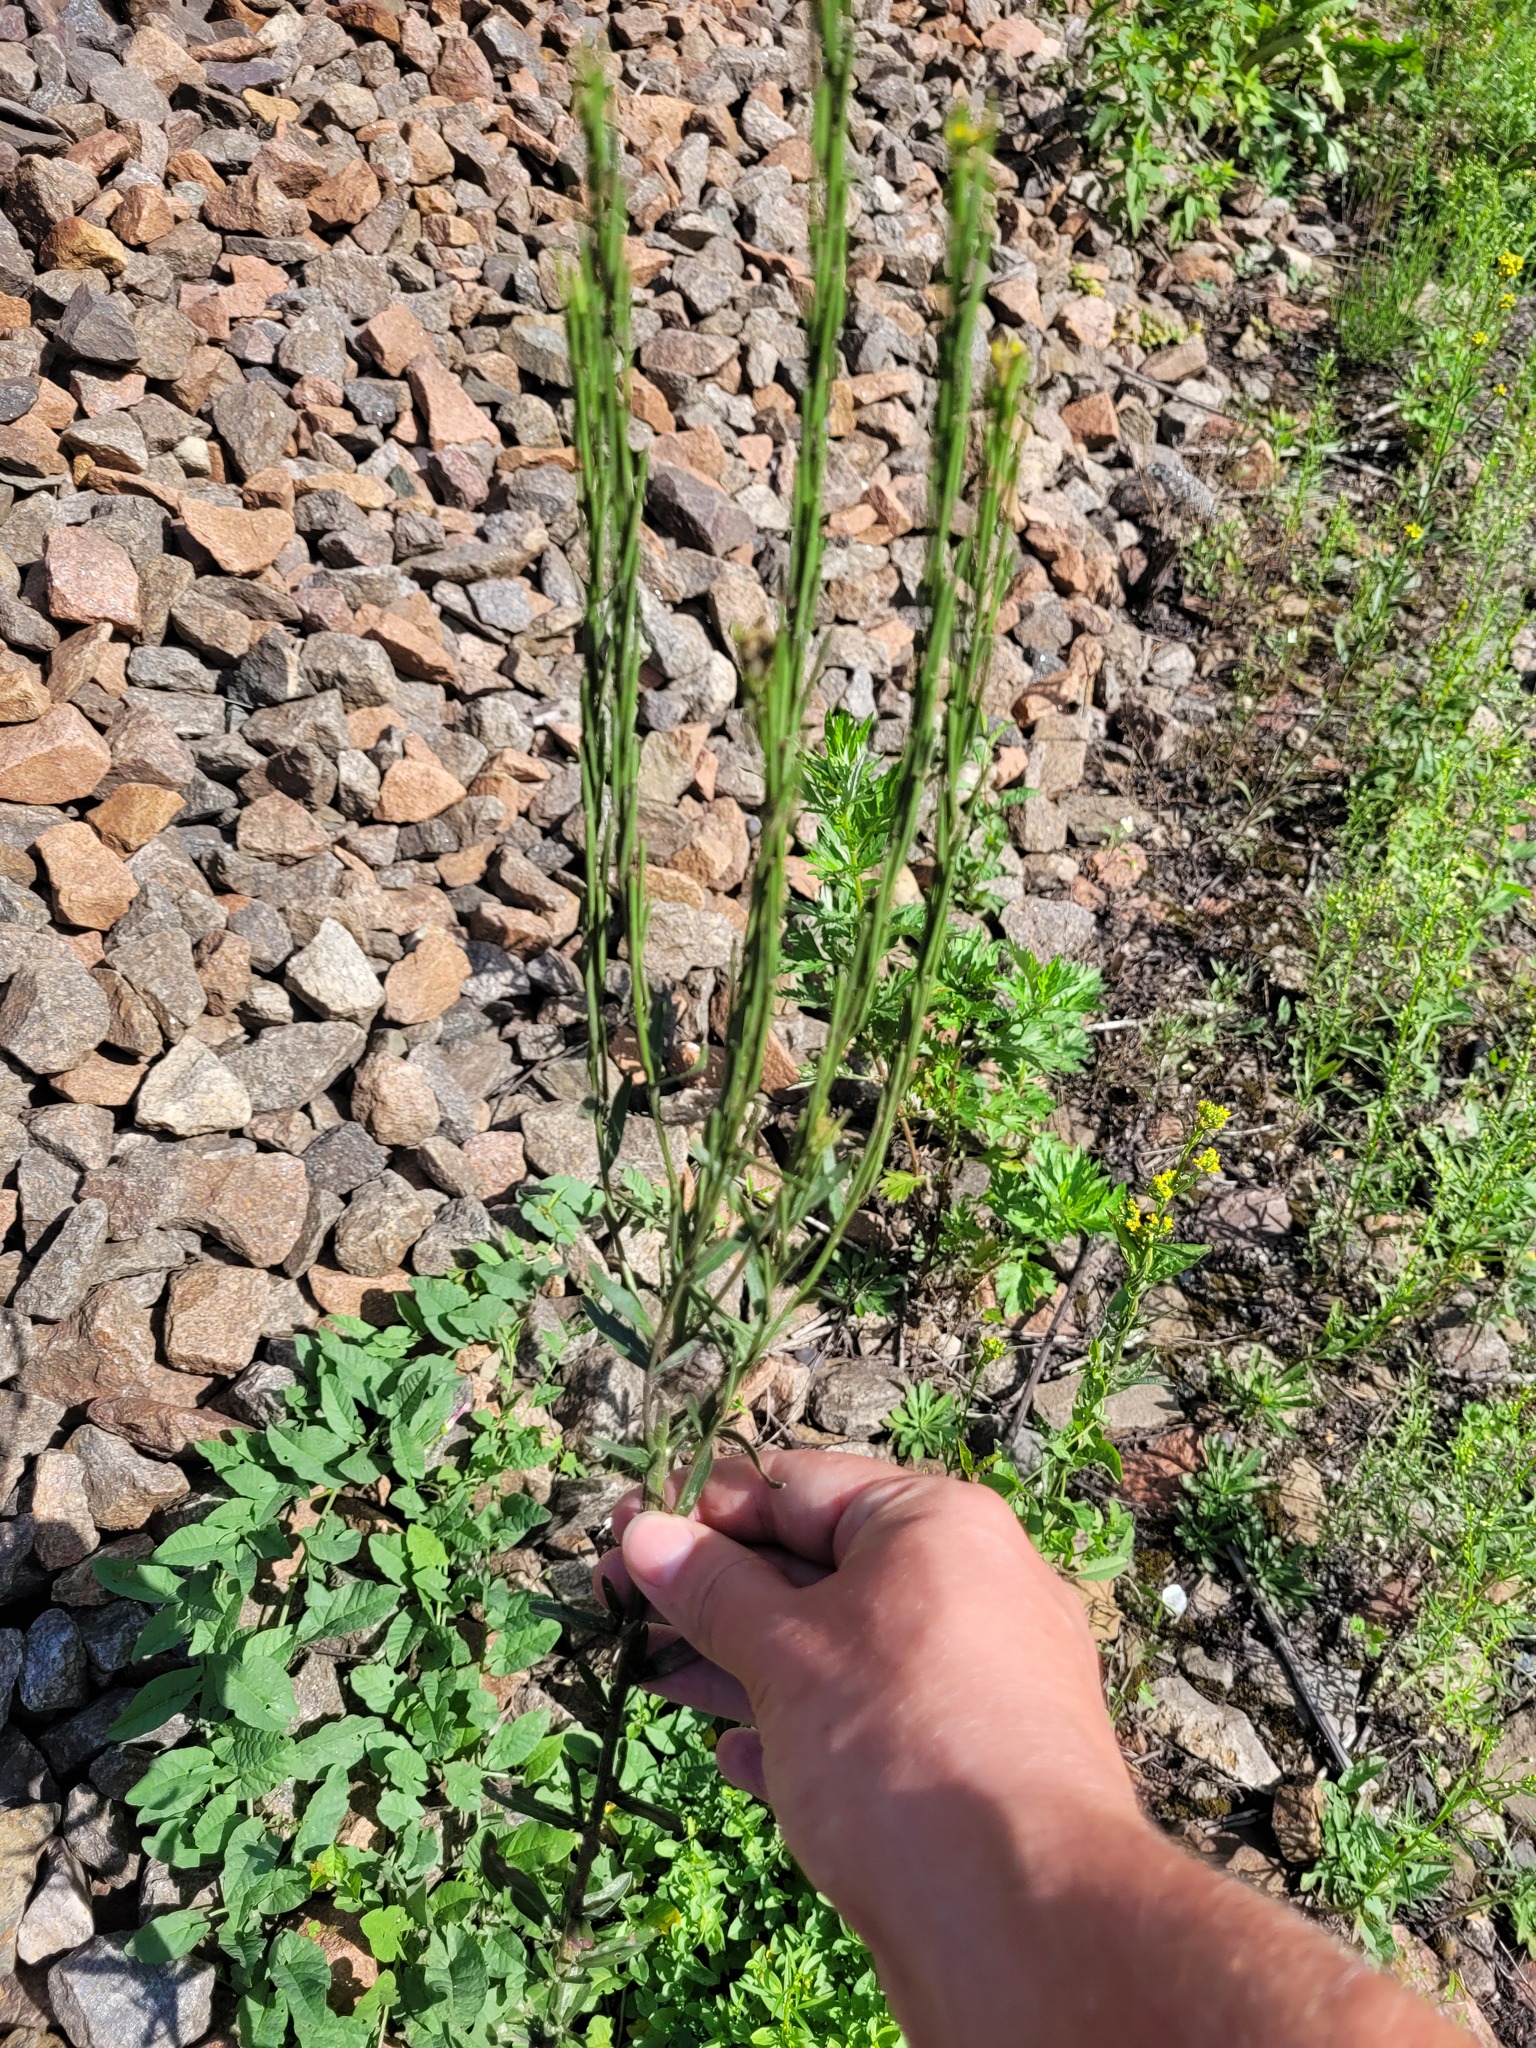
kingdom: Plantae
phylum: Tracheophyta
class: Magnoliopsida
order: Brassicales
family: Brassicaceae
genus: Erysimum
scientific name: Erysimum hieraciifolium
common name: European wallflower
